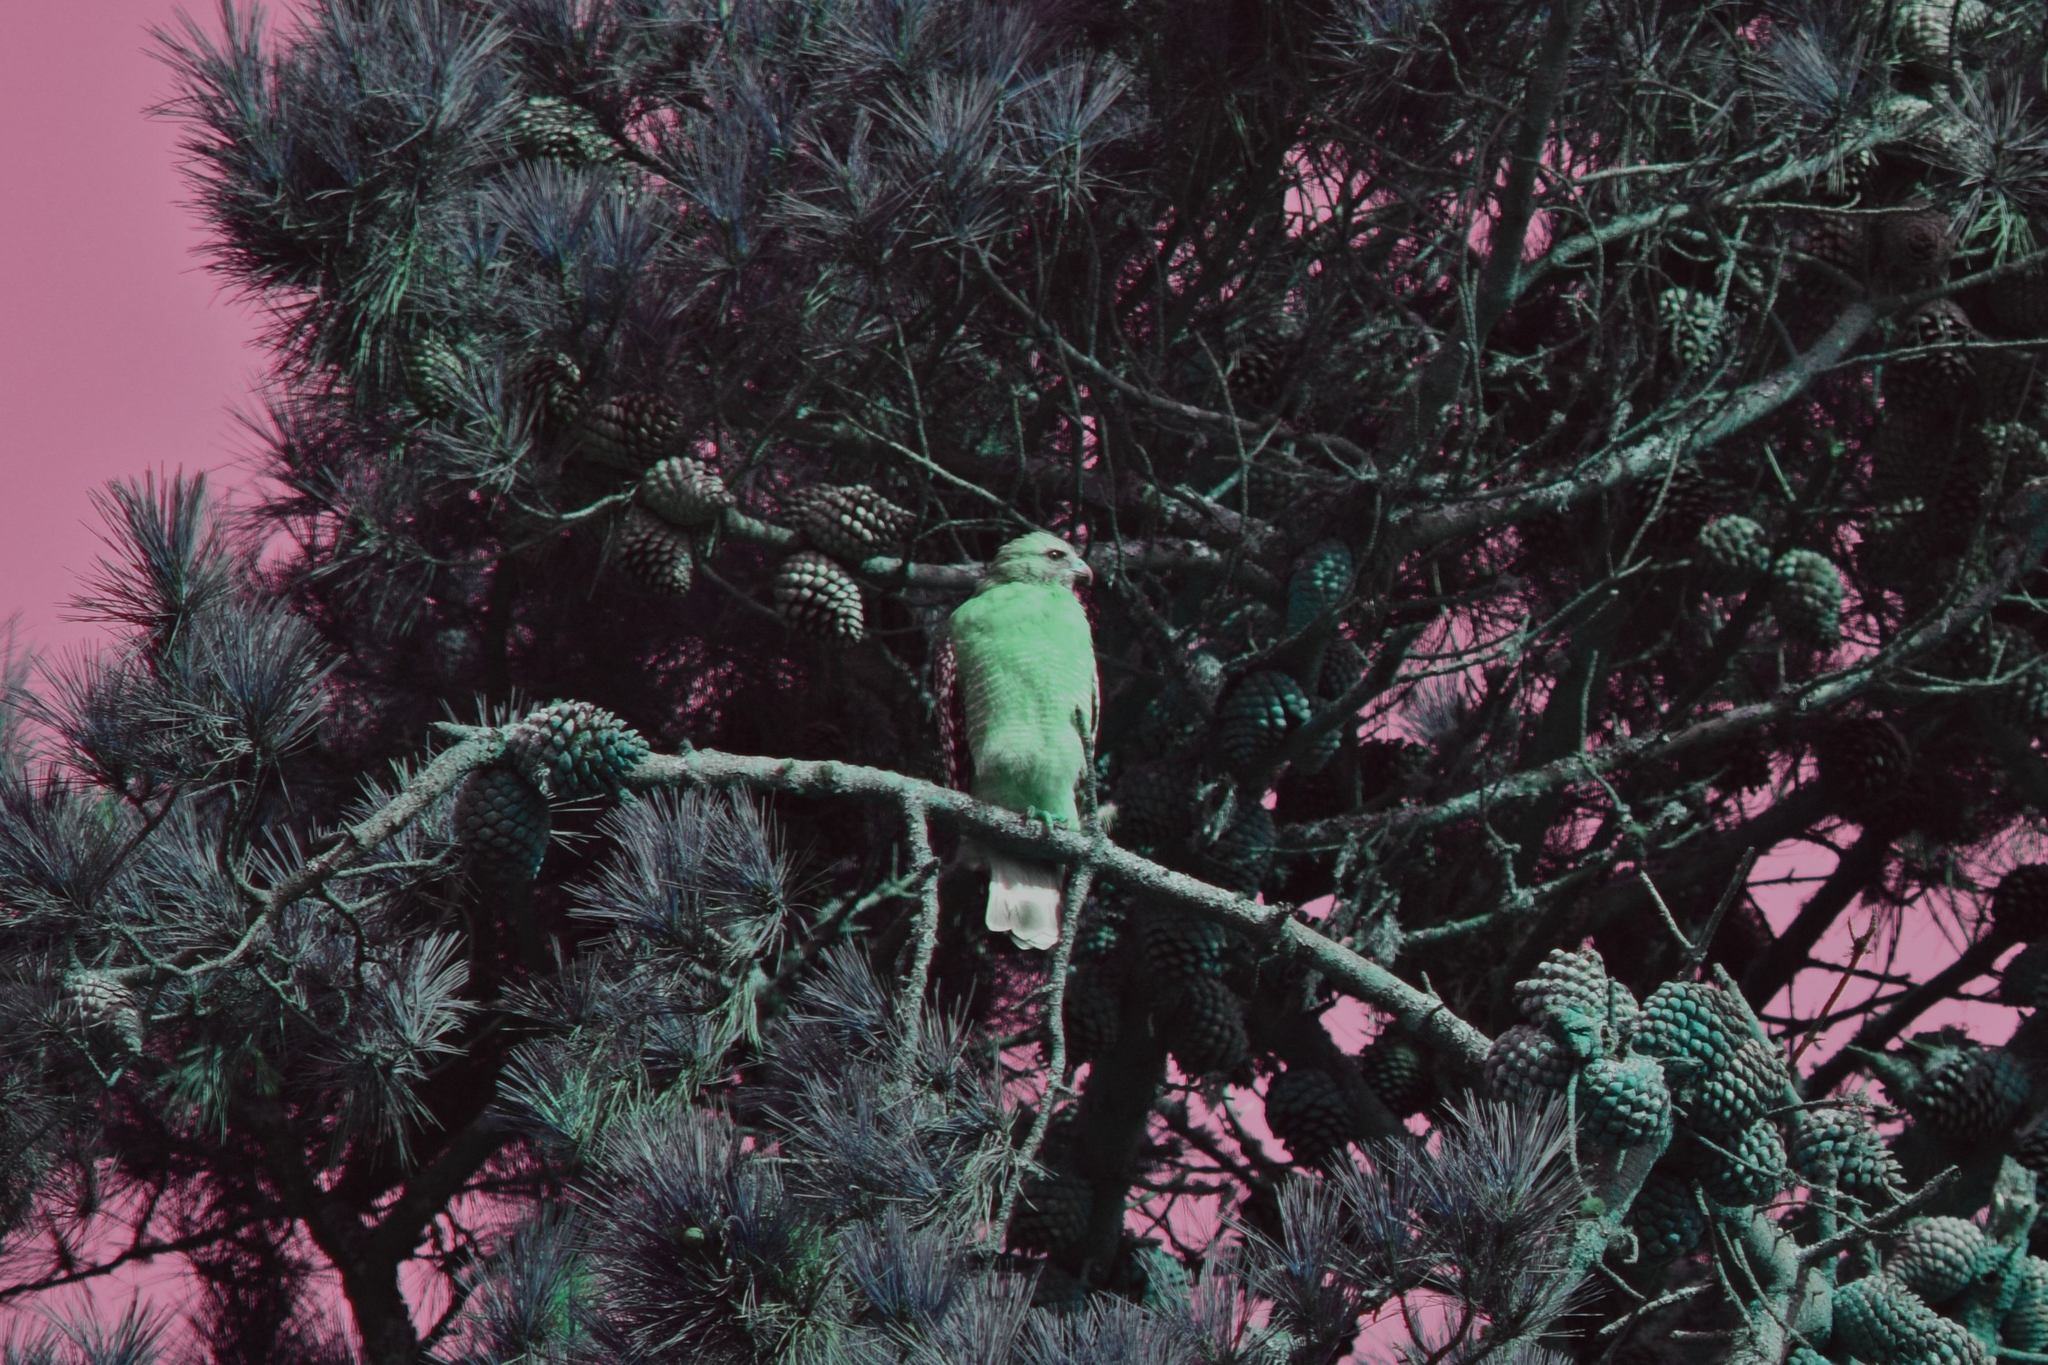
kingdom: Animalia
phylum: Chordata
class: Aves
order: Accipitriformes
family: Accipitridae
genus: Buteo
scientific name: Buteo lineatus
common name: Red-shouldered hawk
